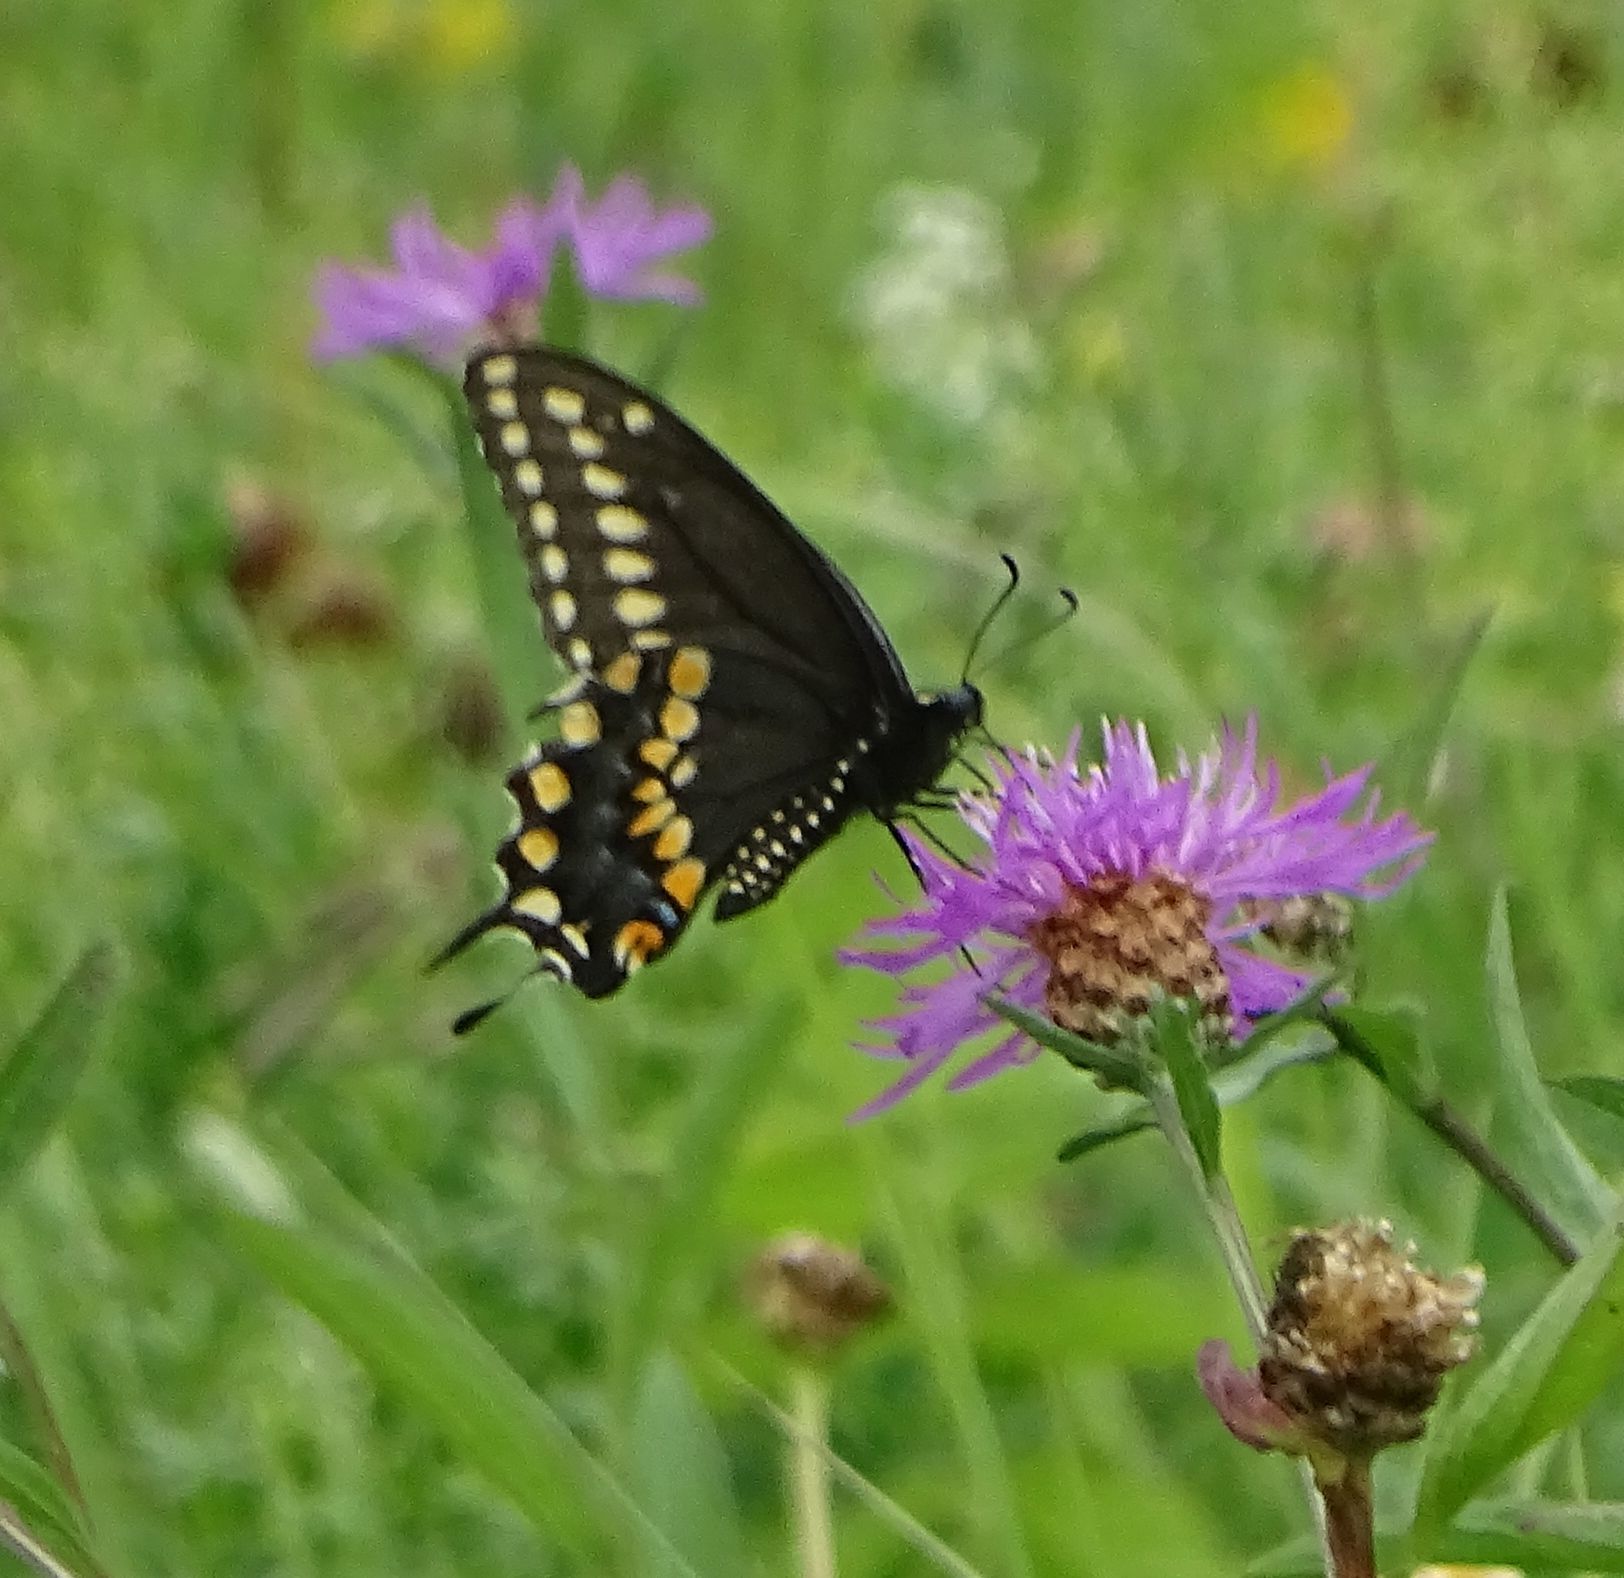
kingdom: Animalia
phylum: Arthropoda
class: Insecta
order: Lepidoptera
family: Papilionidae
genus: Papilio
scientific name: Papilio polyxenes
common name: Black swallowtail
